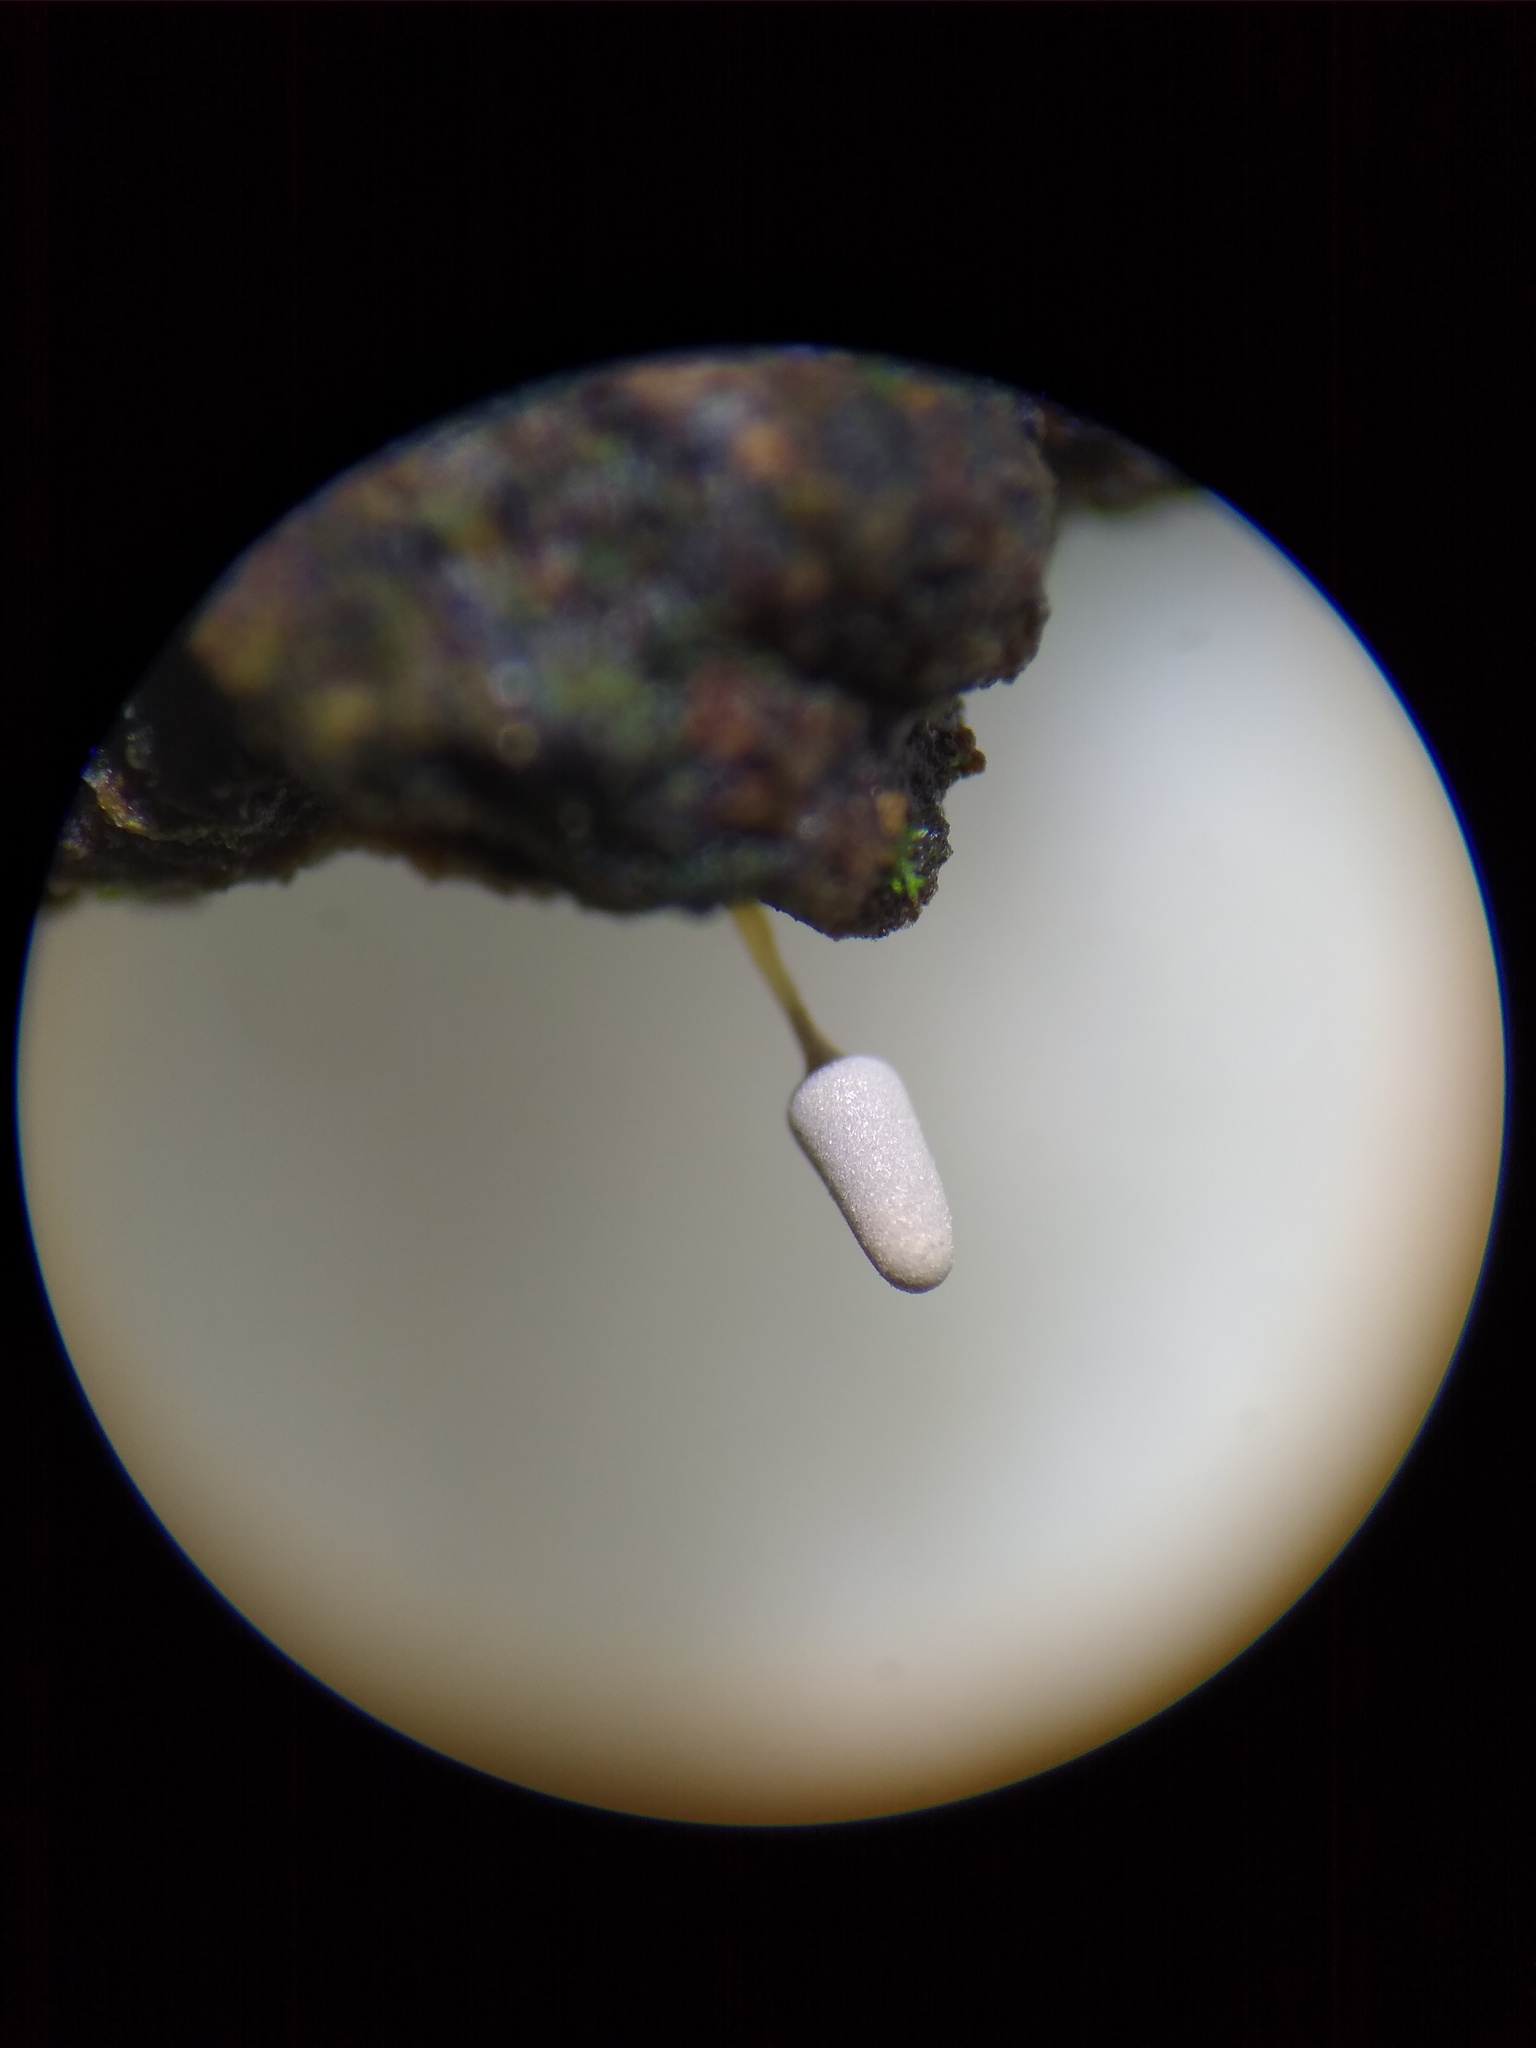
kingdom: Protozoa
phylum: Mycetozoa
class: Myxomycetes
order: Trichiales
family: Arcyriaceae
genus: Arcyria
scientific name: Arcyria cinerea
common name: White carnival candy slime mold
